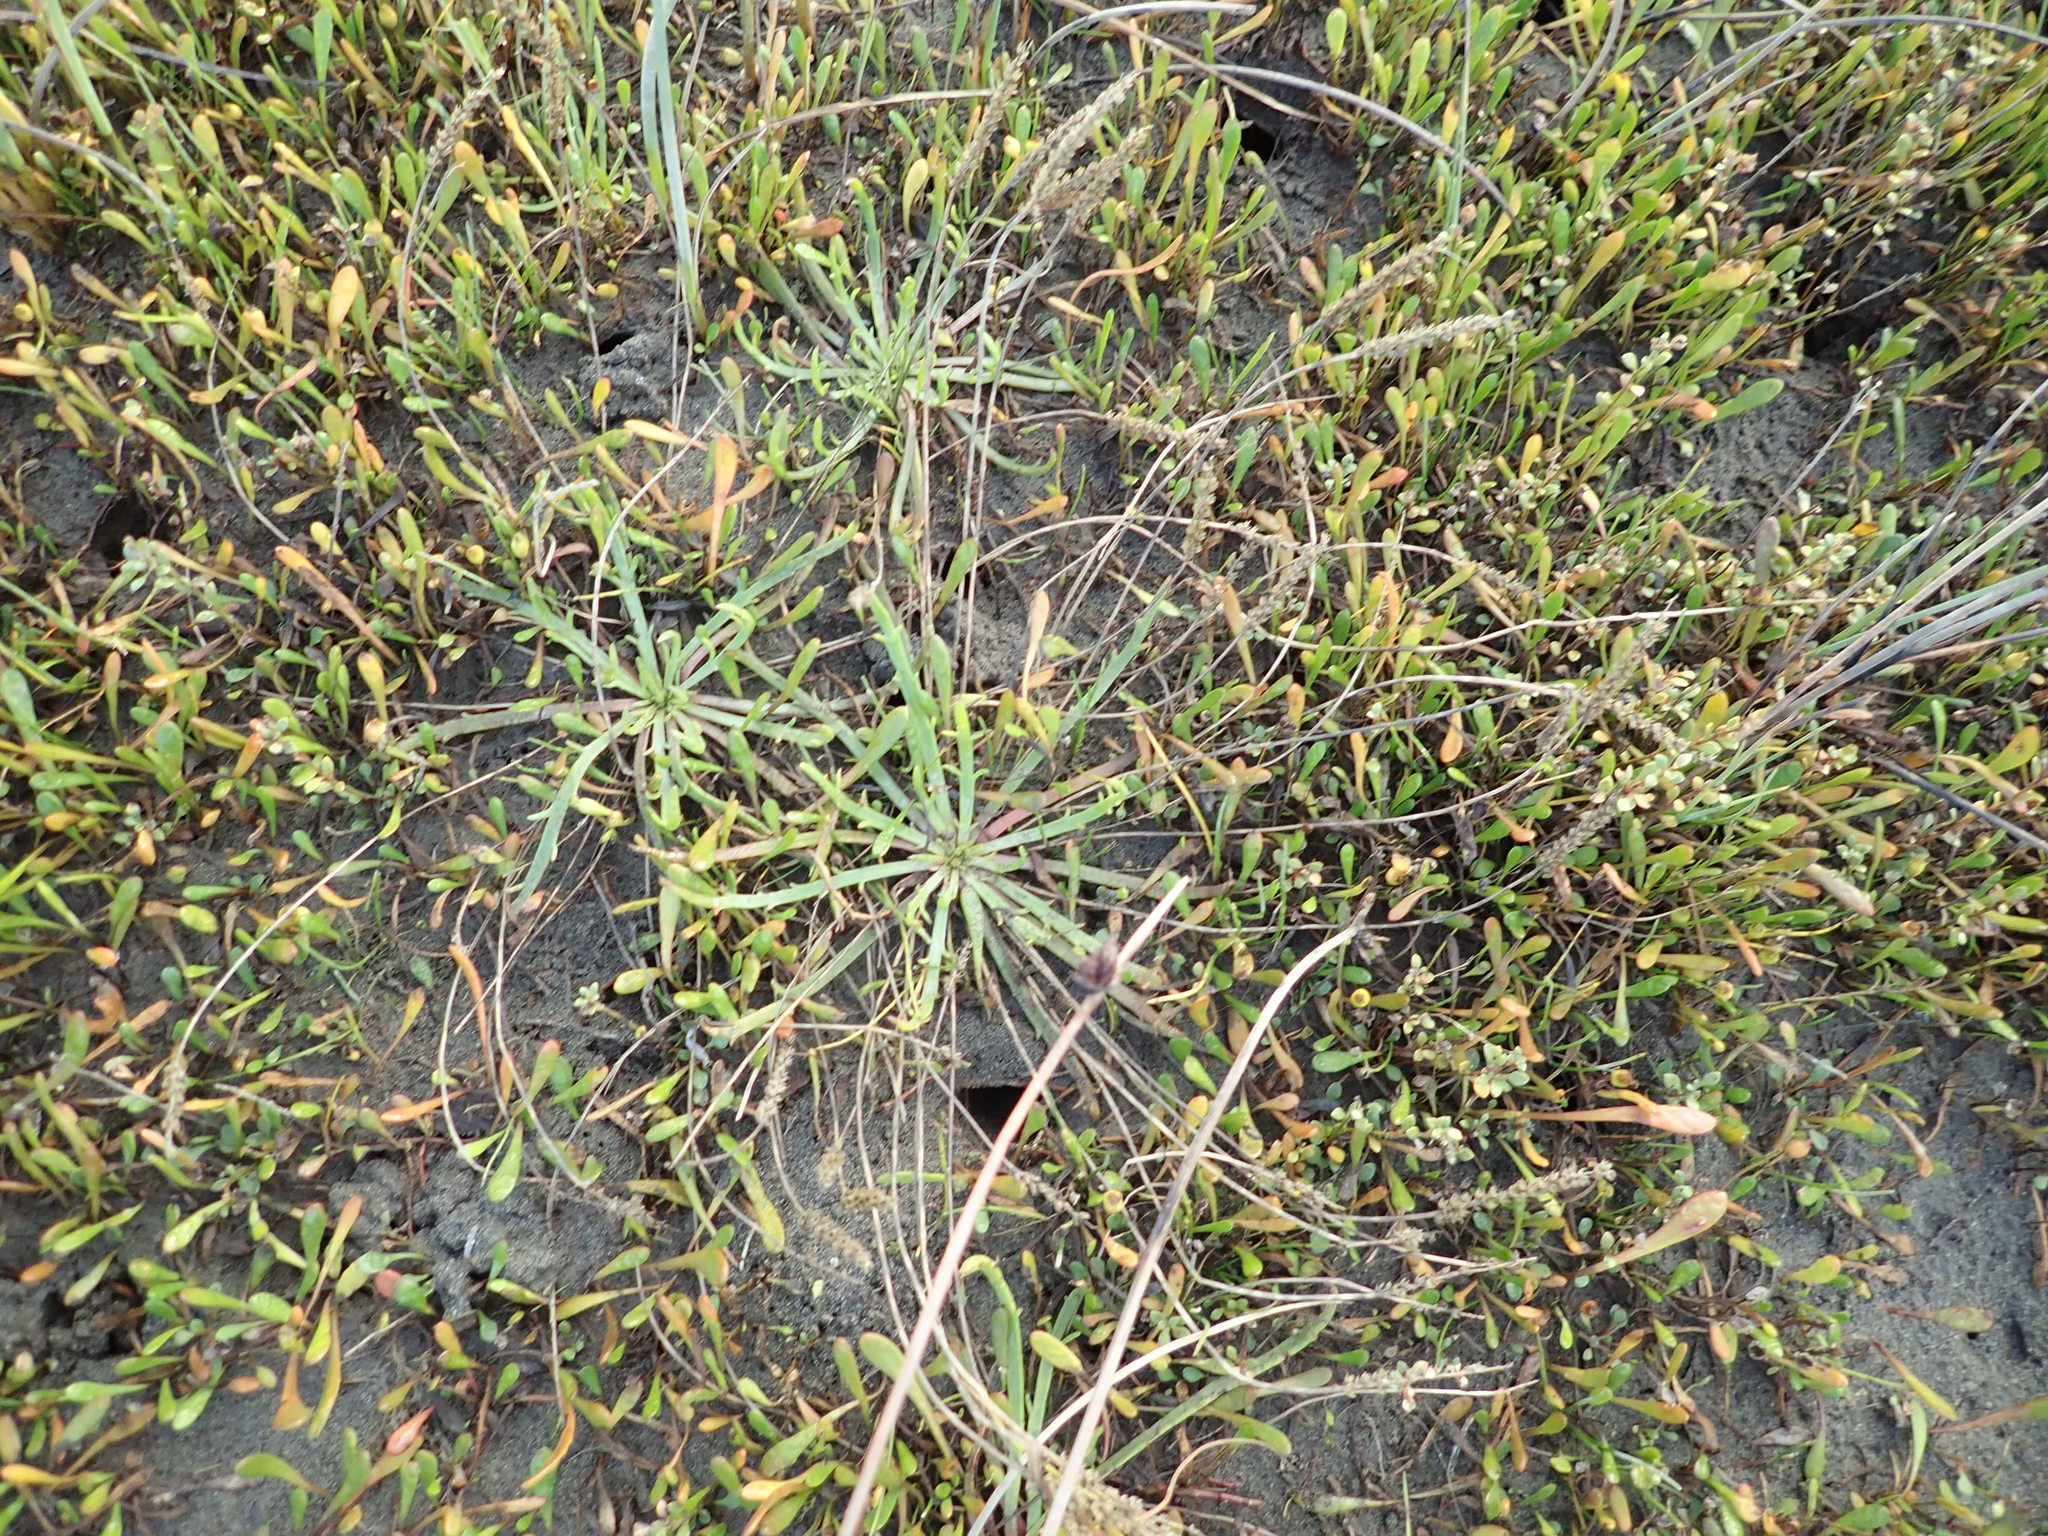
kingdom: Plantae
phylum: Tracheophyta
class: Magnoliopsida
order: Lamiales
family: Plantaginaceae
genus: Plantago
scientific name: Plantago coronopus
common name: Buck's-horn plantain
